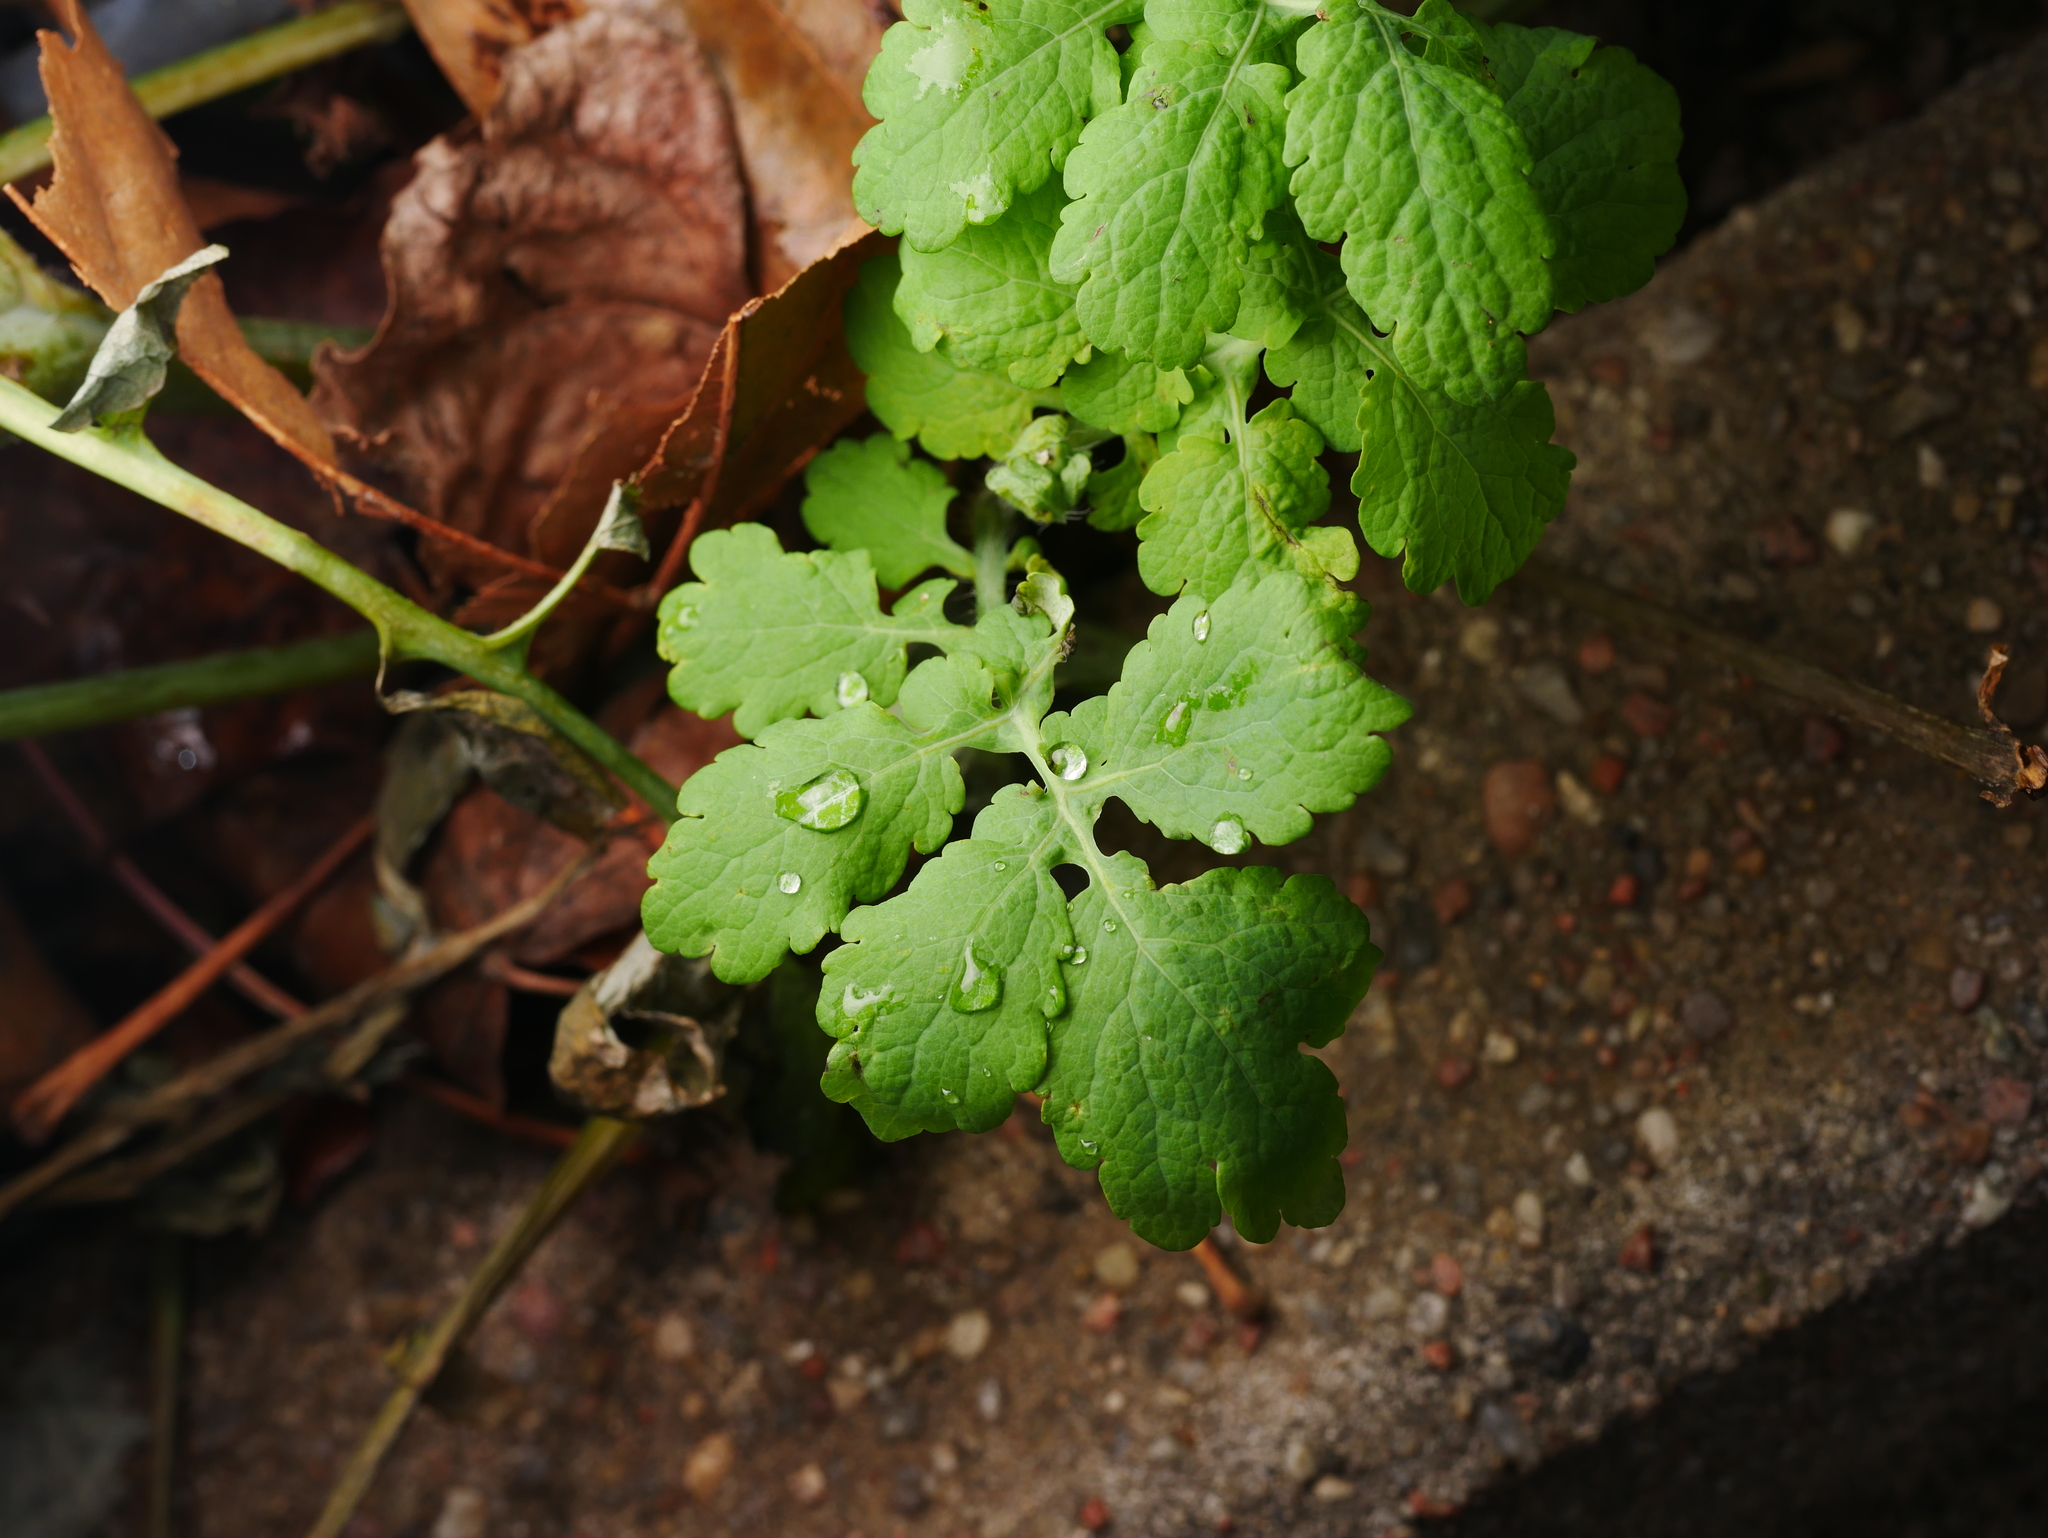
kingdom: Plantae
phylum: Tracheophyta
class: Magnoliopsida
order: Ranunculales
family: Papaveraceae
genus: Chelidonium
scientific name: Chelidonium majus
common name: Greater celandine
